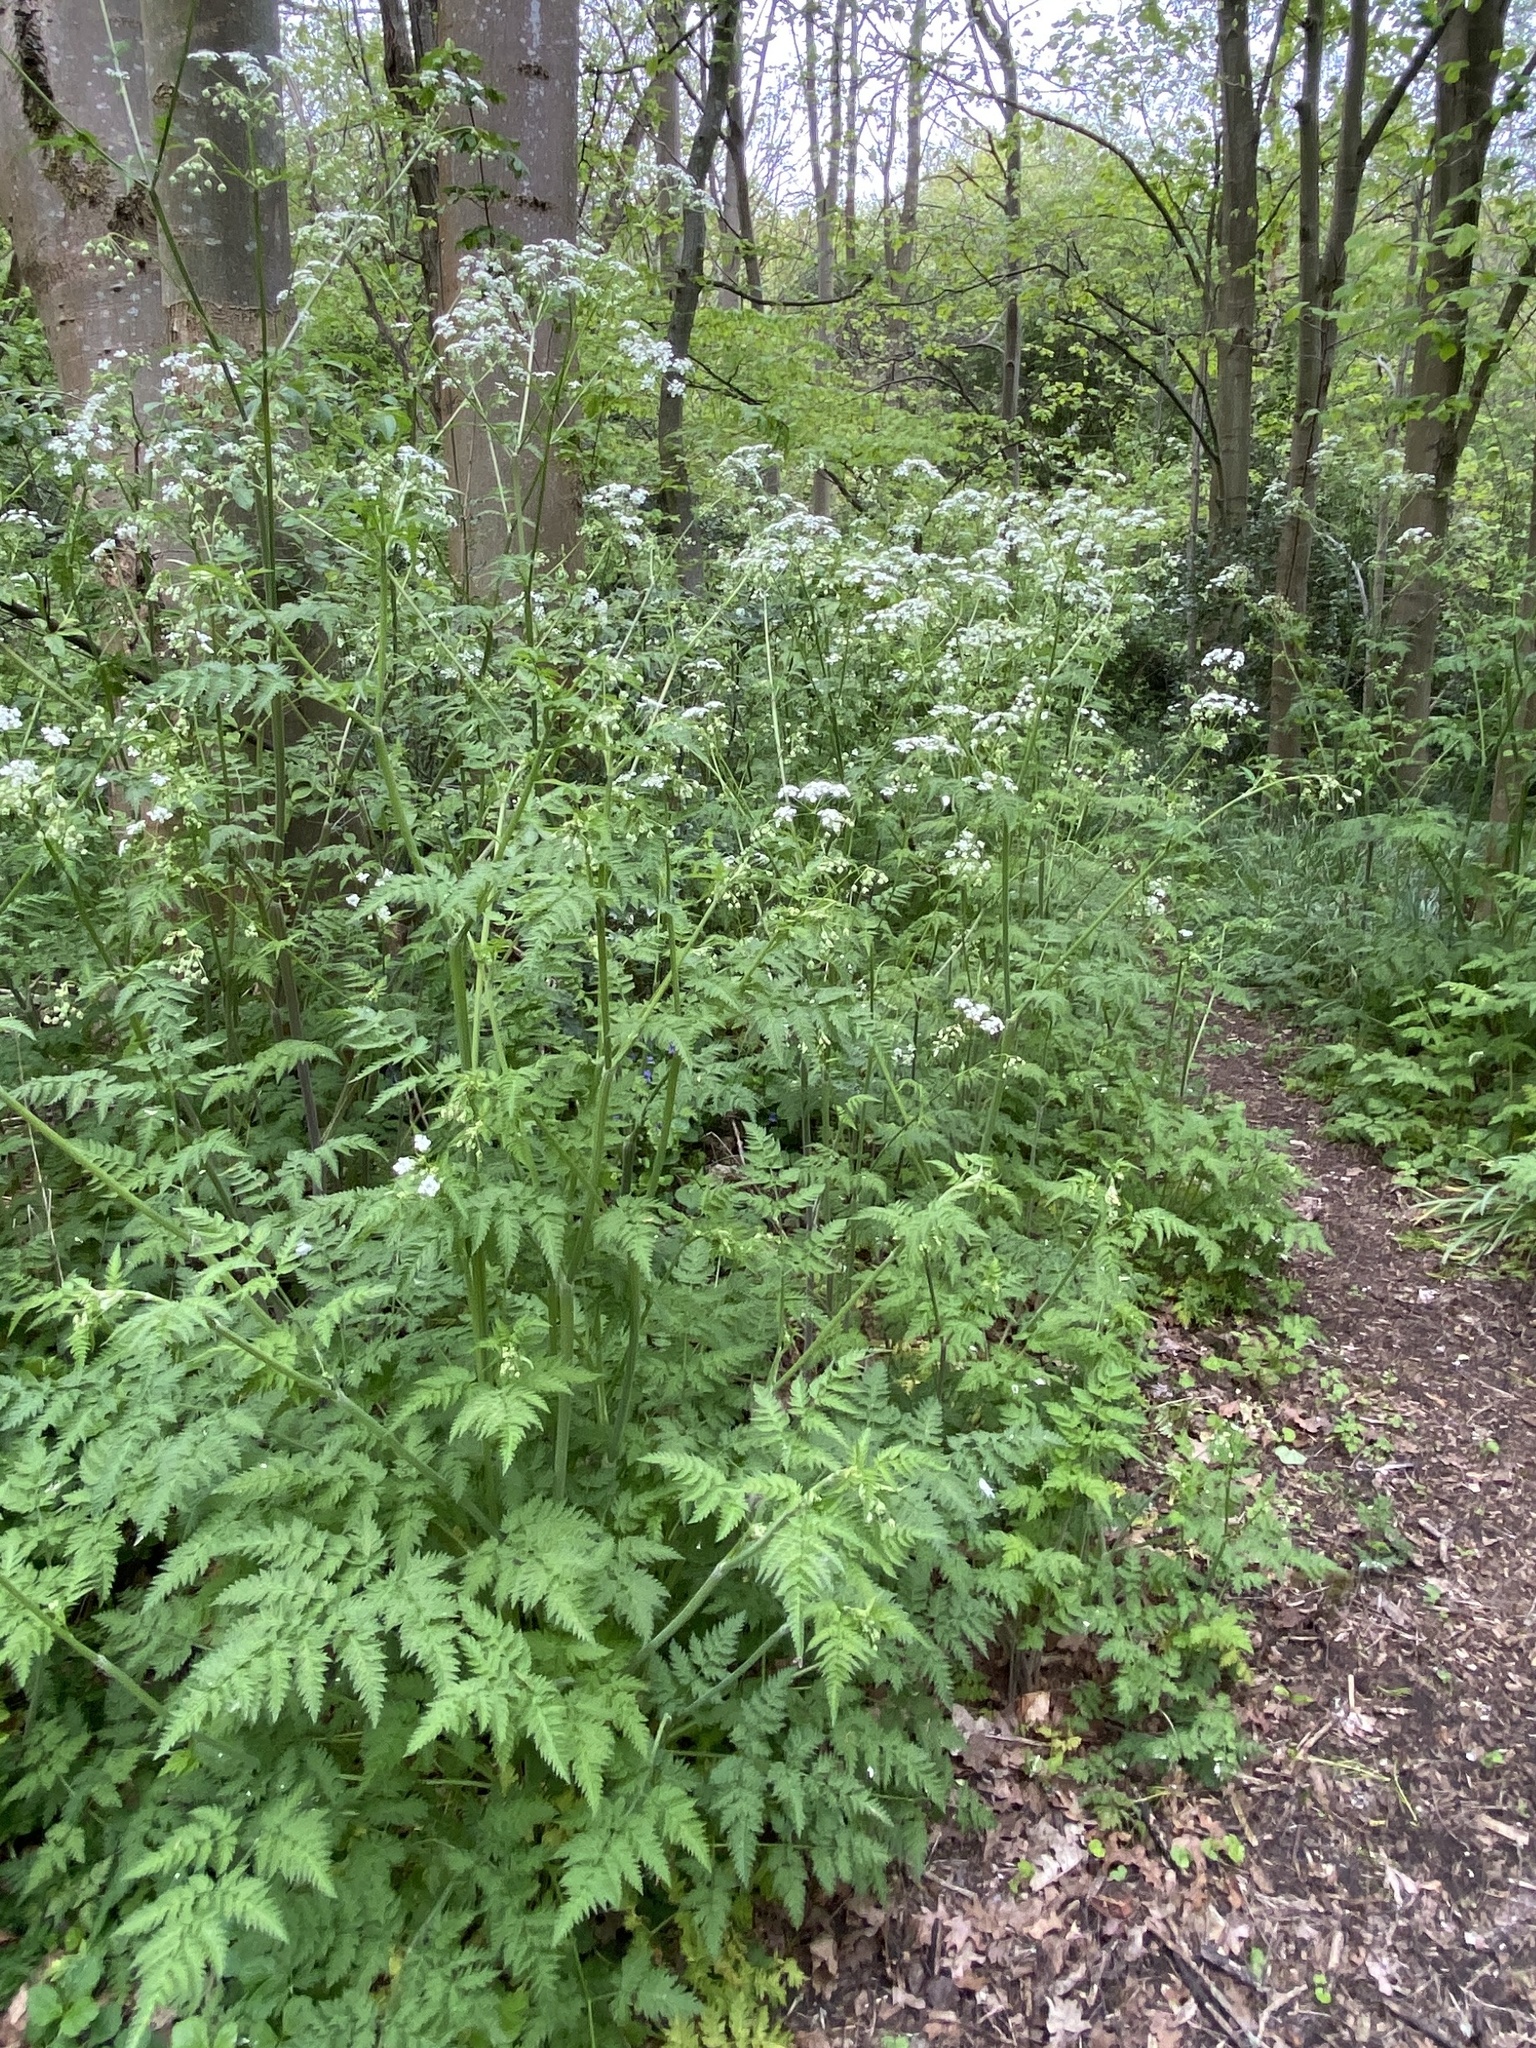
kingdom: Plantae
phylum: Tracheophyta
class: Magnoliopsida
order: Apiales
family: Apiaceae
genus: Anthriscus
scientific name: Anthriscus sylvestris
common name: Cow parsley
